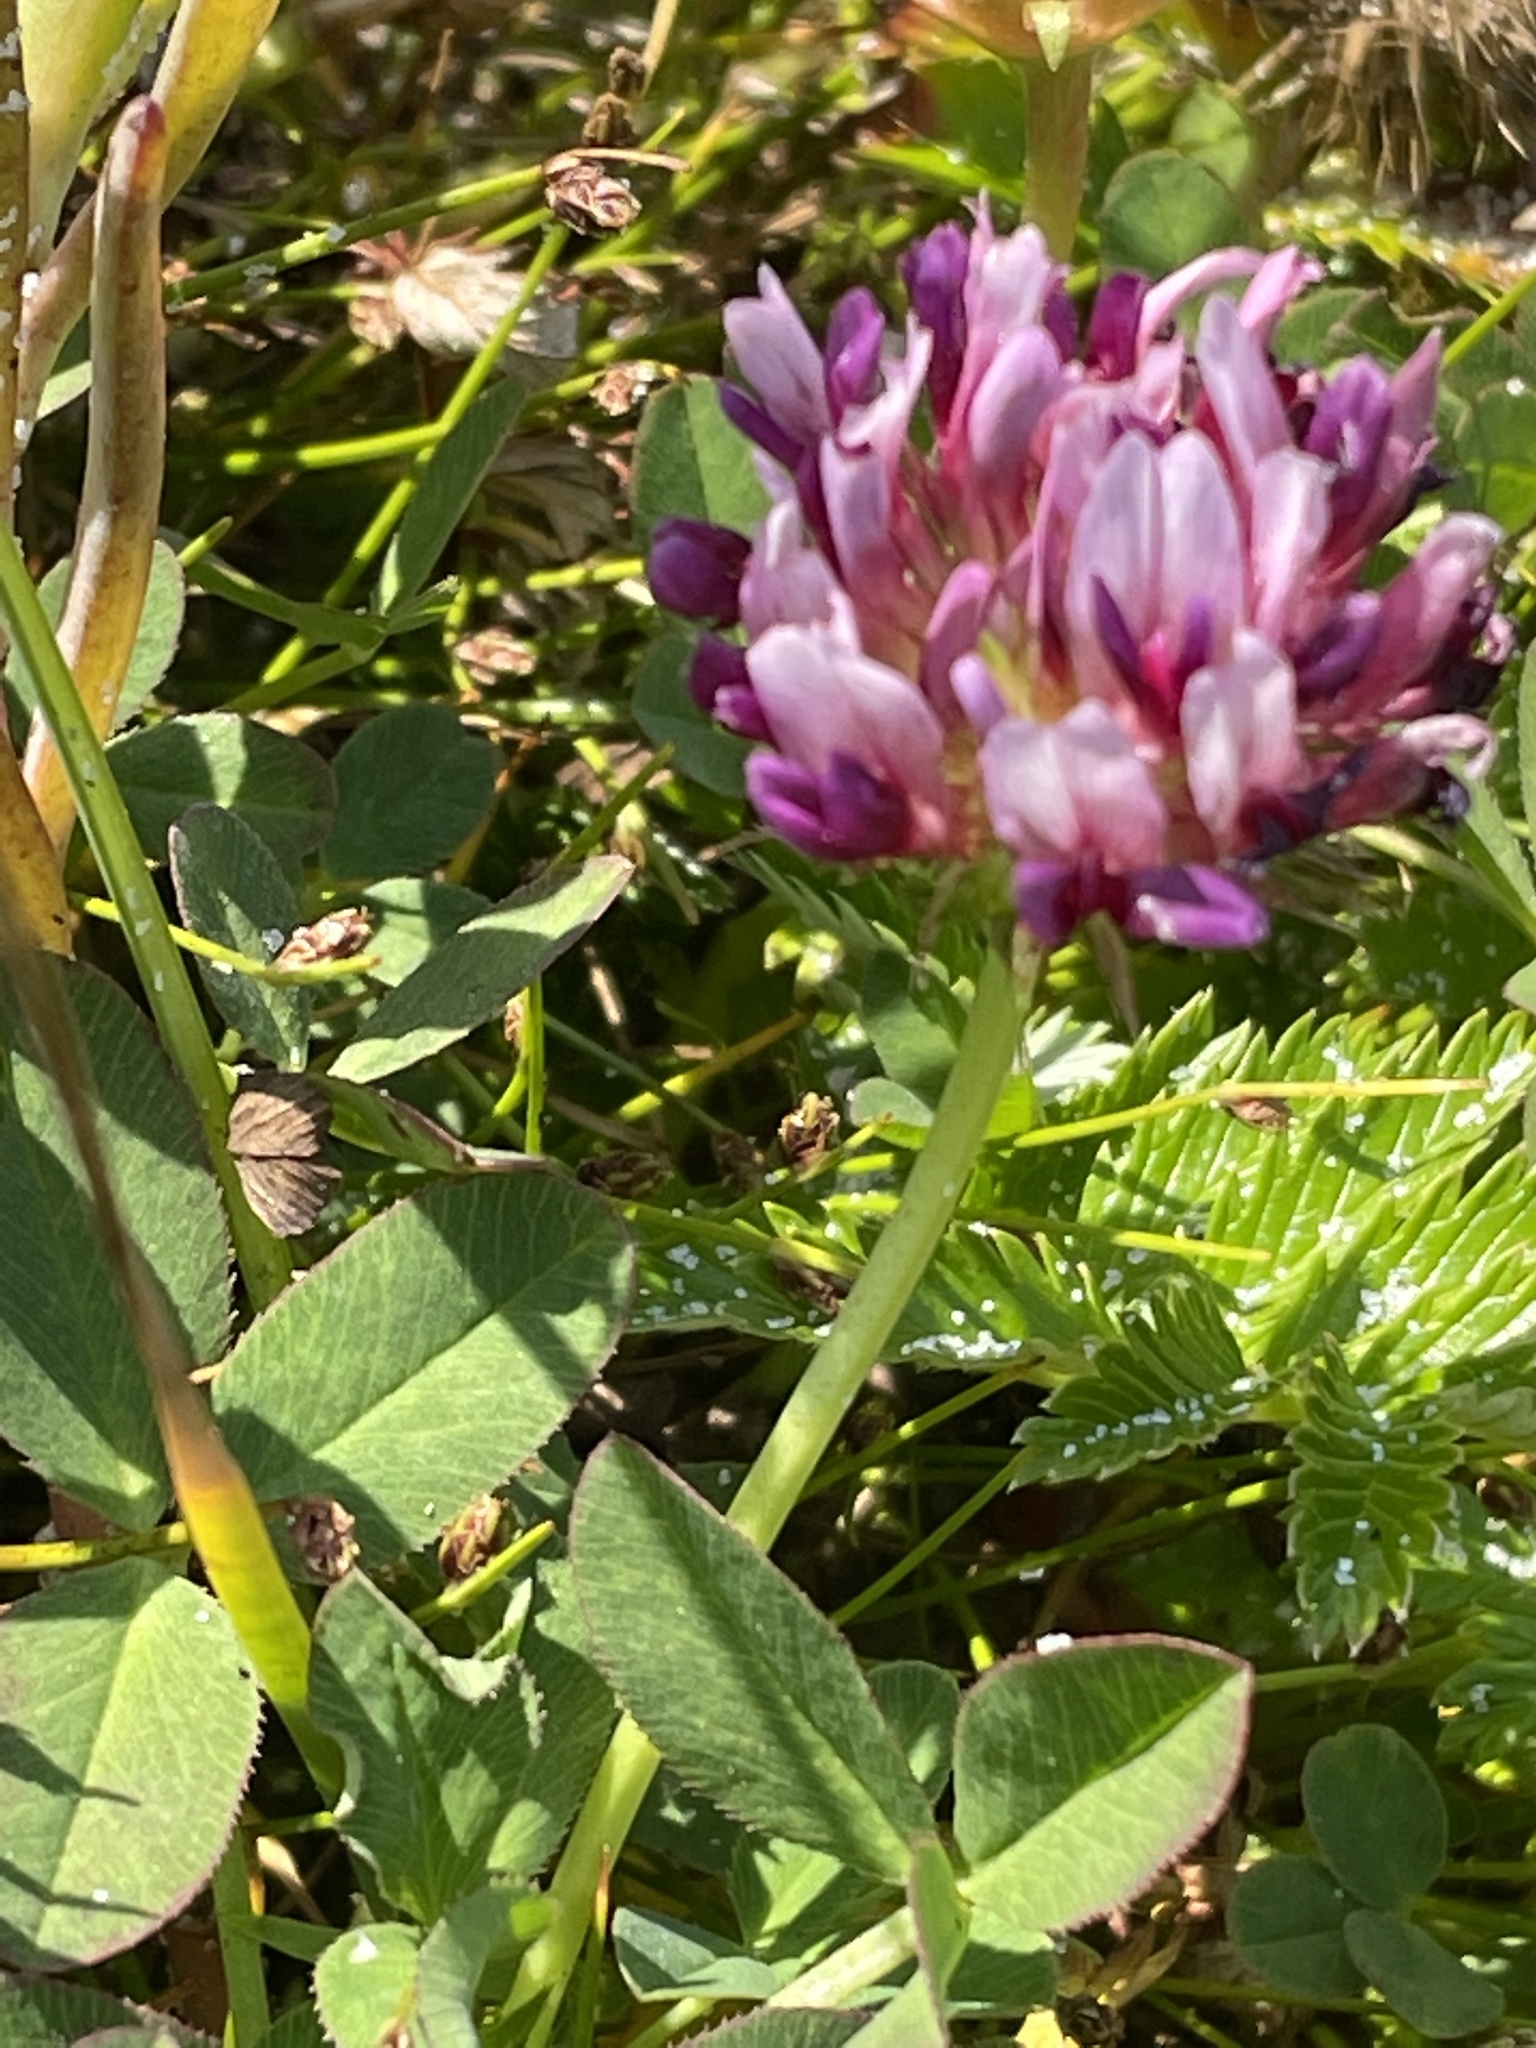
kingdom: Plantae
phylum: Tracheophyta
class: Magnoliopsida
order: Fabales
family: Fabaceae
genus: Trifolium
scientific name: Trifolium wormskioldii
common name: Springbank clover
